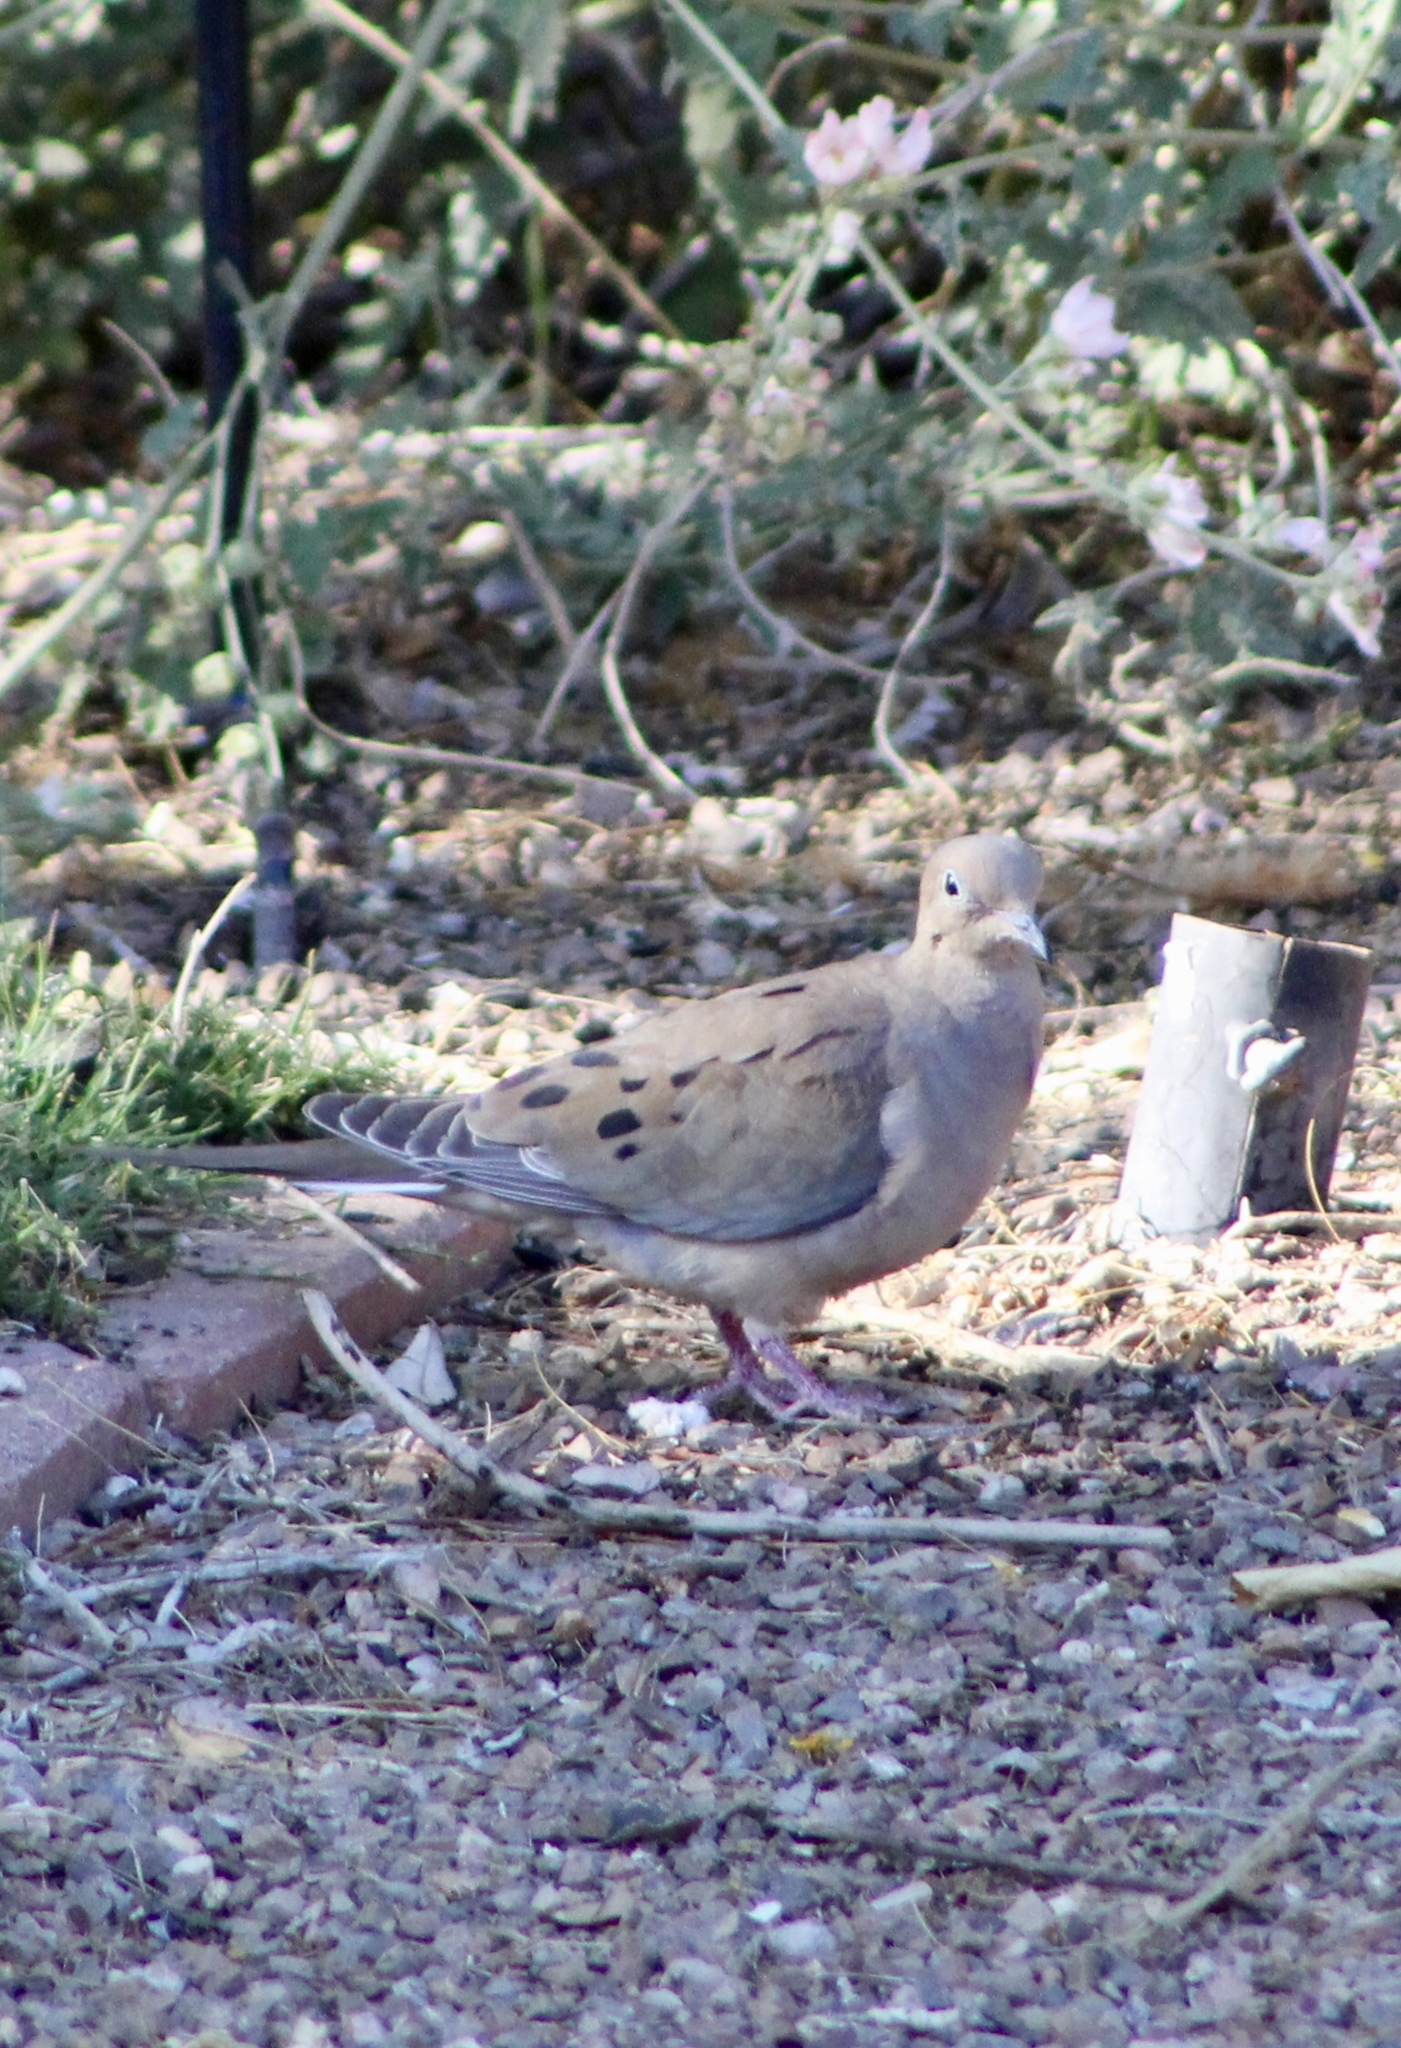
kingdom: Animalia
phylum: Chordata
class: Aves
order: Columbiformes
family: Columbidae
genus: Zenaida
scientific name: Zenaida macroura
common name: Mourning dove
